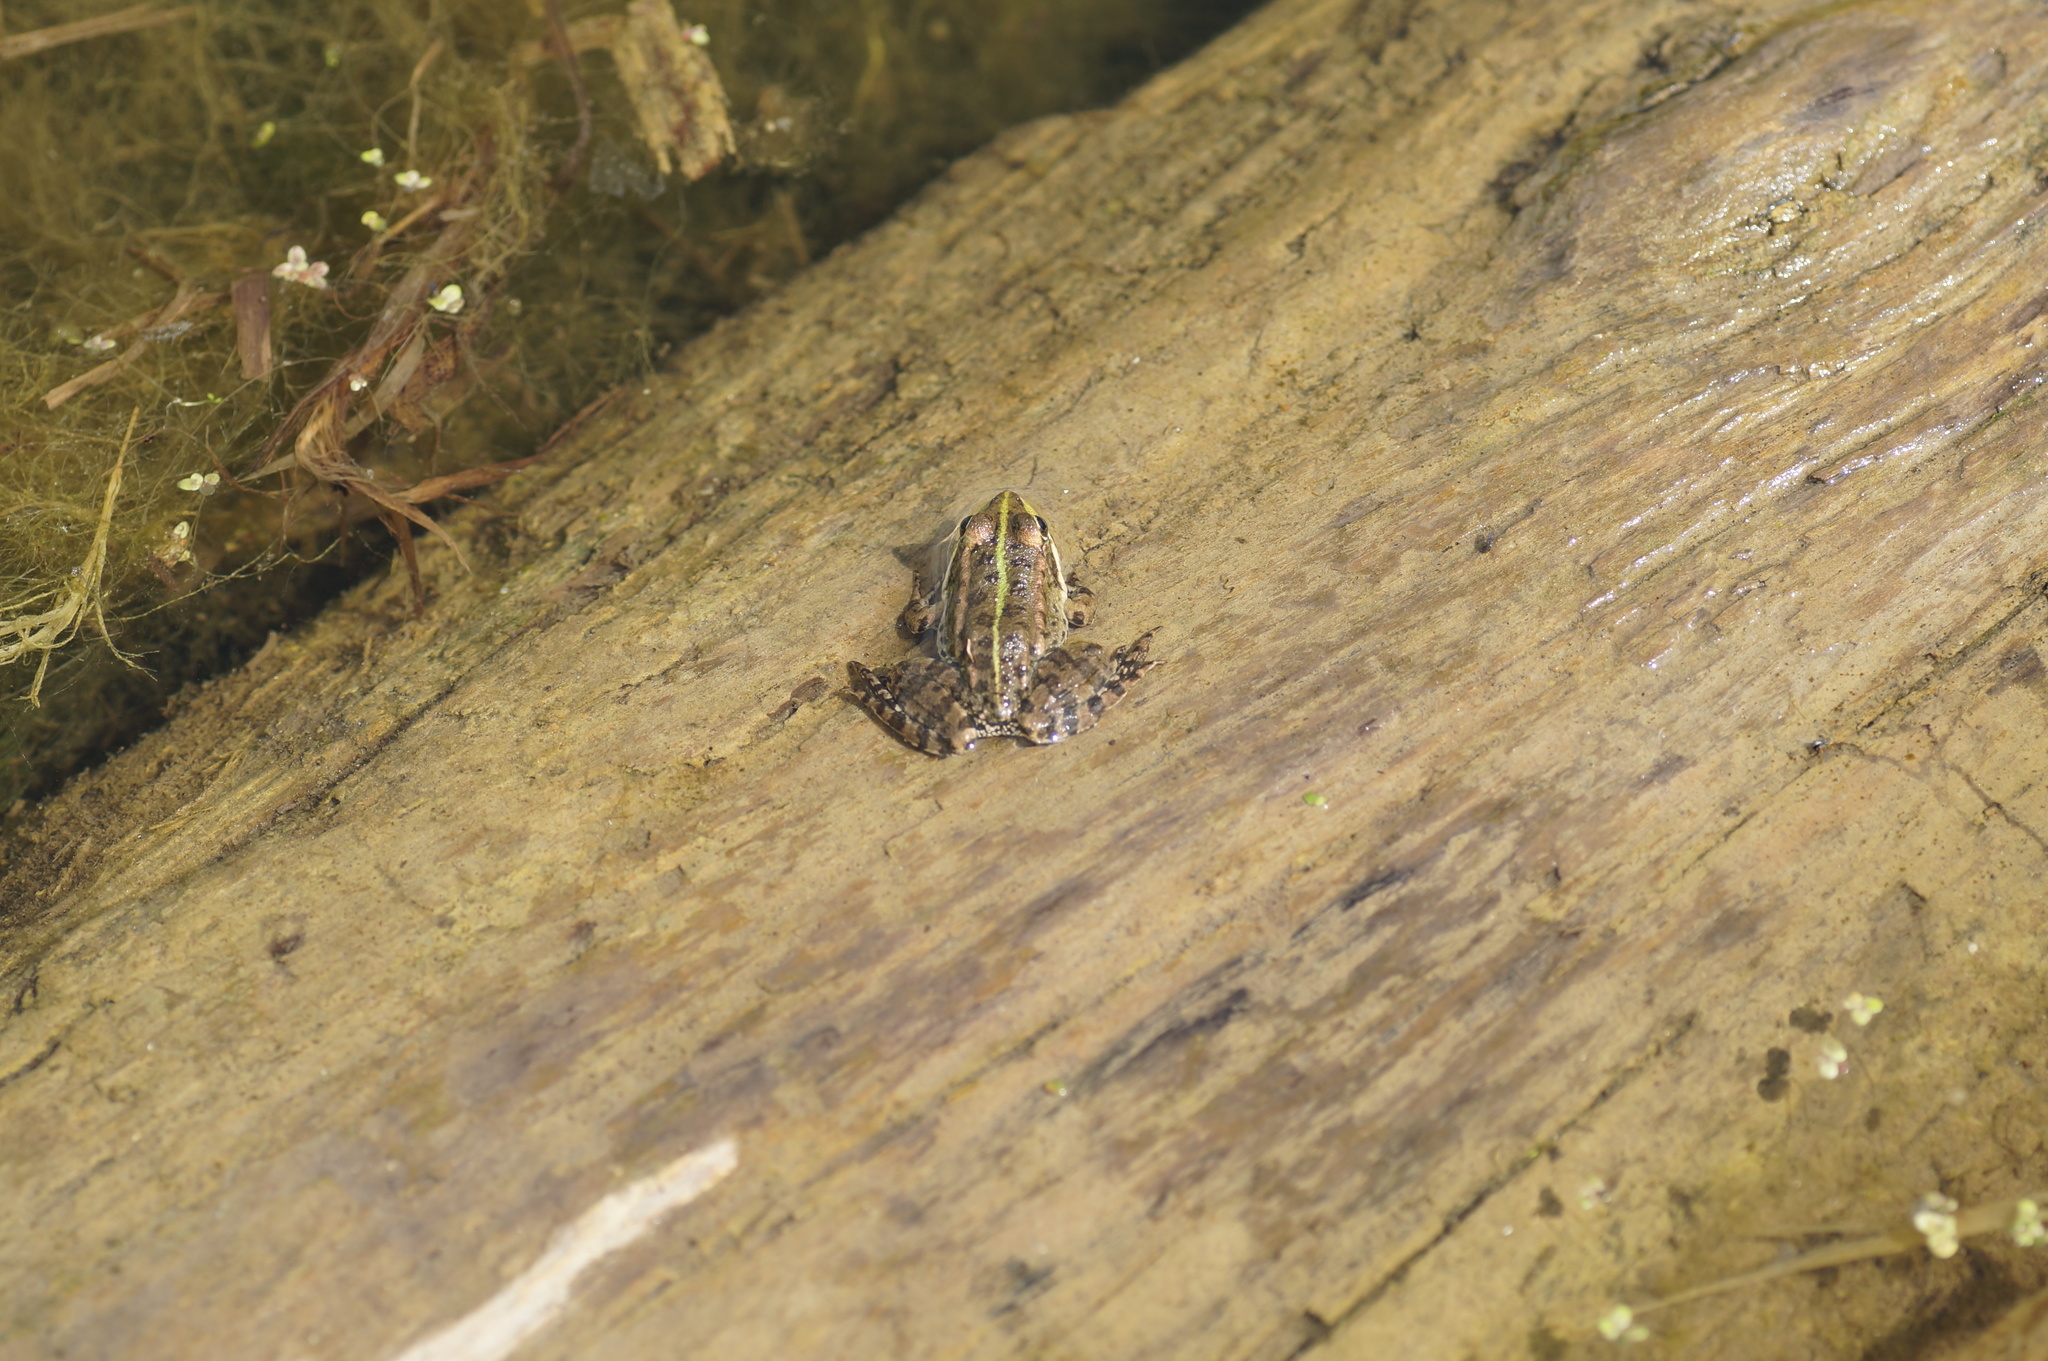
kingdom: Animalia
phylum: Chordata
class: Amphibia
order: Anura
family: Ranidae
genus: Pelophylax
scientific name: Pelophylax ridibundus
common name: Marsh frog
